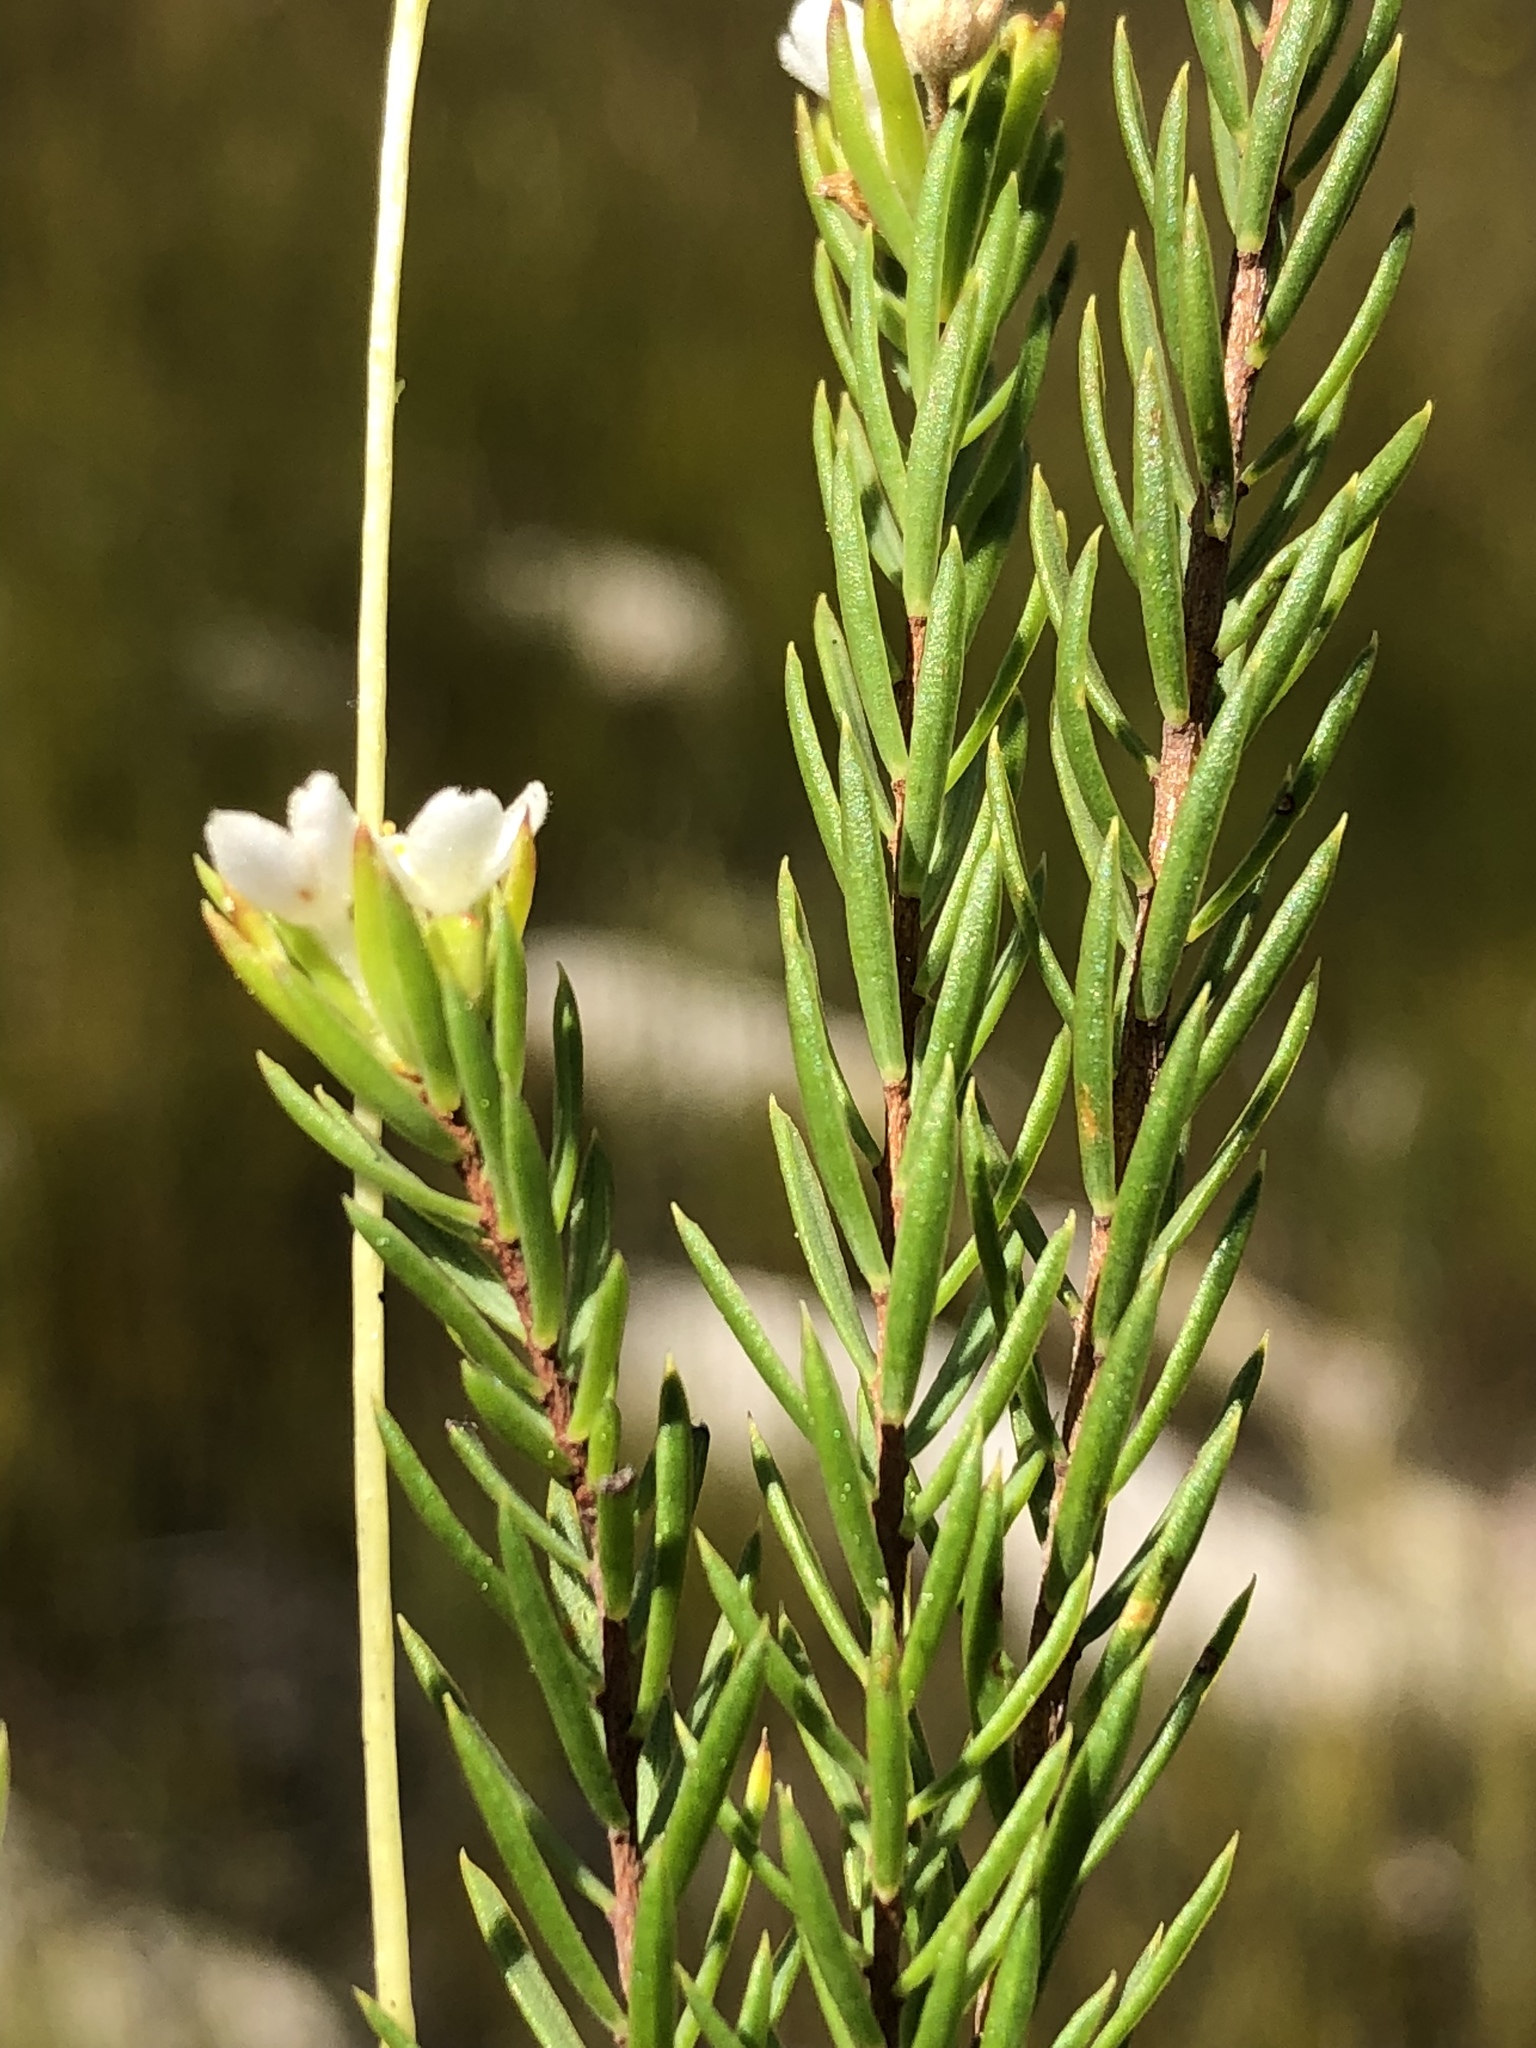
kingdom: Plantae
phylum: Tracheophyta
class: Magnoliopsida
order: Malvales
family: Thymelaeaceae
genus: Lachnaea
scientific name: Lachnaea diosmoides
